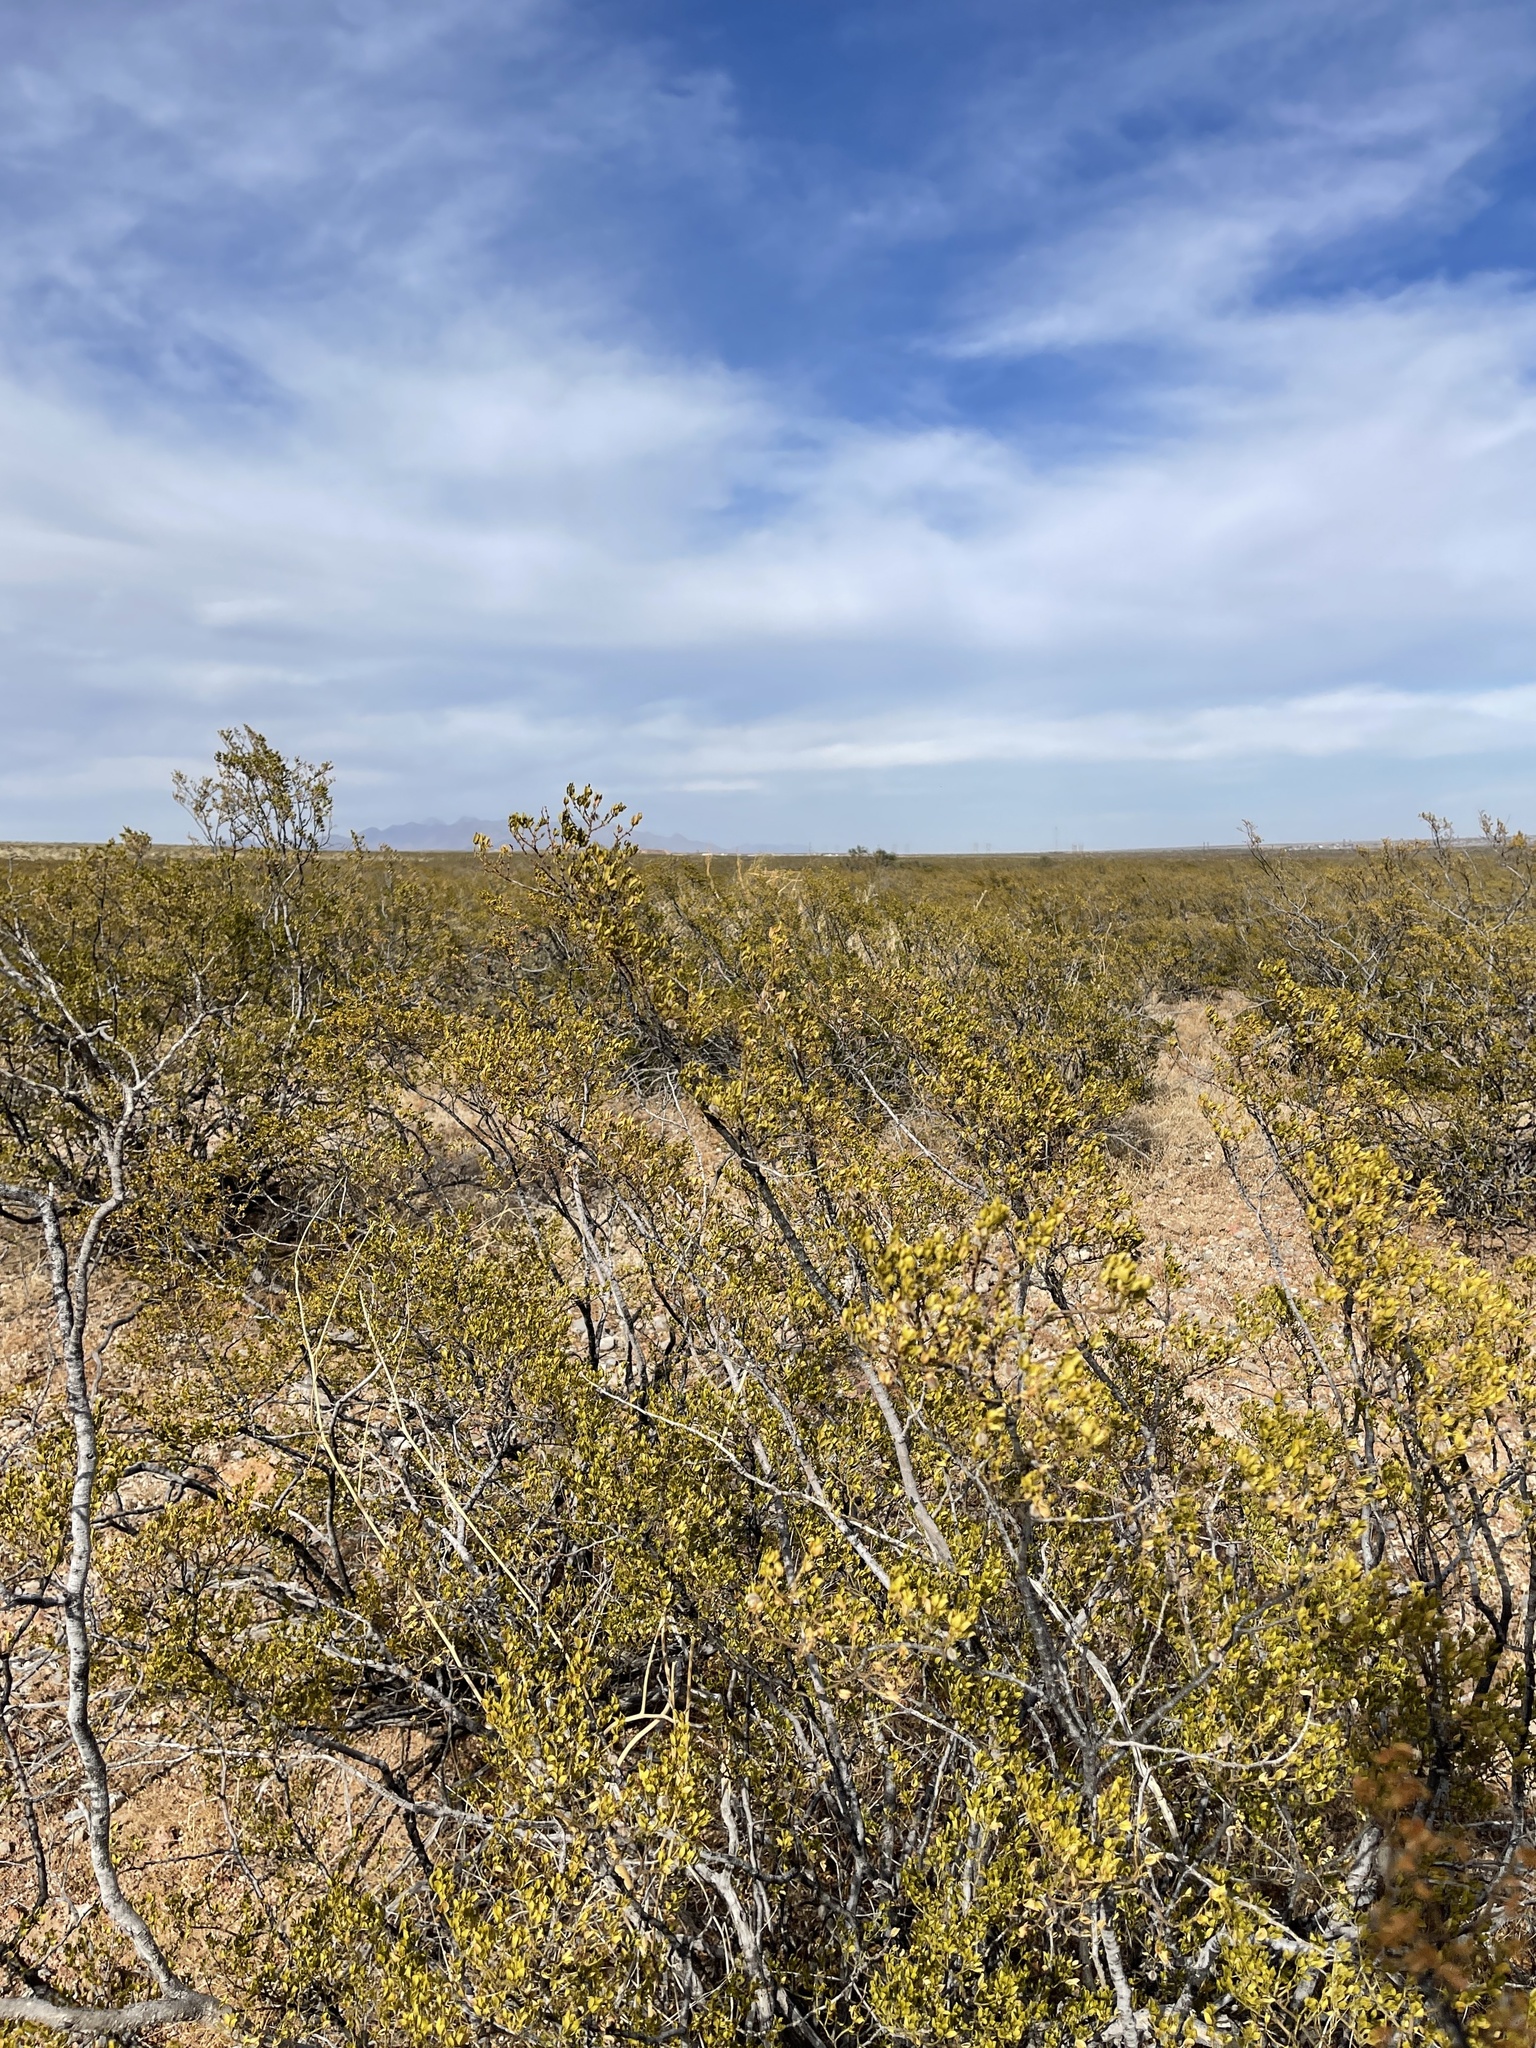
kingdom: Plantae
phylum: Tracheophyta
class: Magnoliopsida
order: Zygophyllales
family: Zygophyllaceae
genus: Larrea
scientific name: Larrea tridentata
